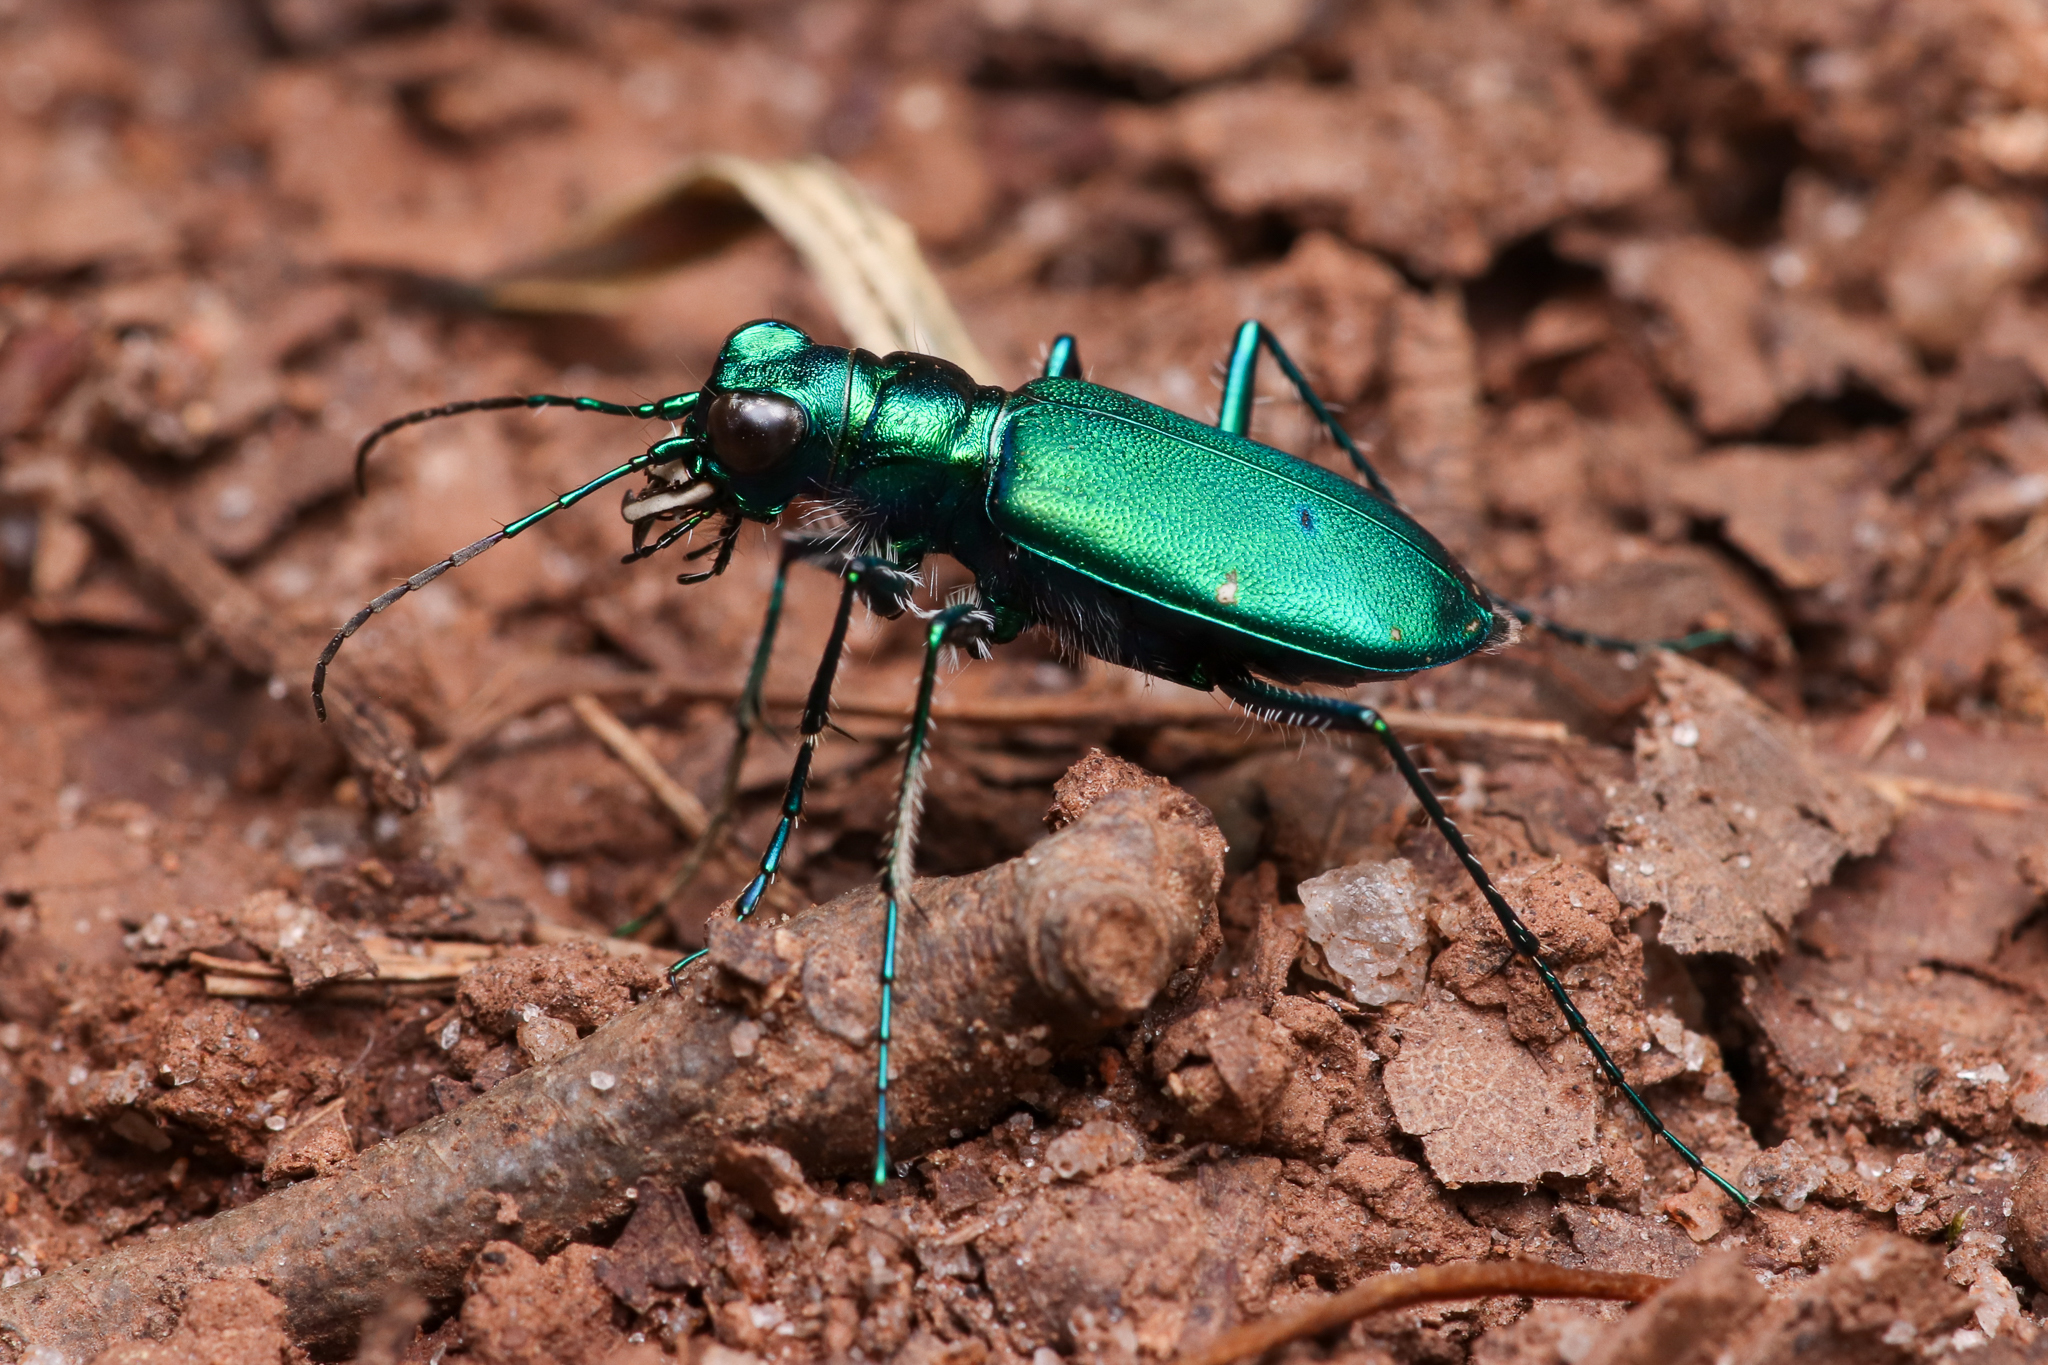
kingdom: Animalia
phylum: Arthropoda
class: Insecta
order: Coleoptera
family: Carabidae
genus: Cicindela
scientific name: Cicindela sexguttata
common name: Six-spotted tiger beetle
